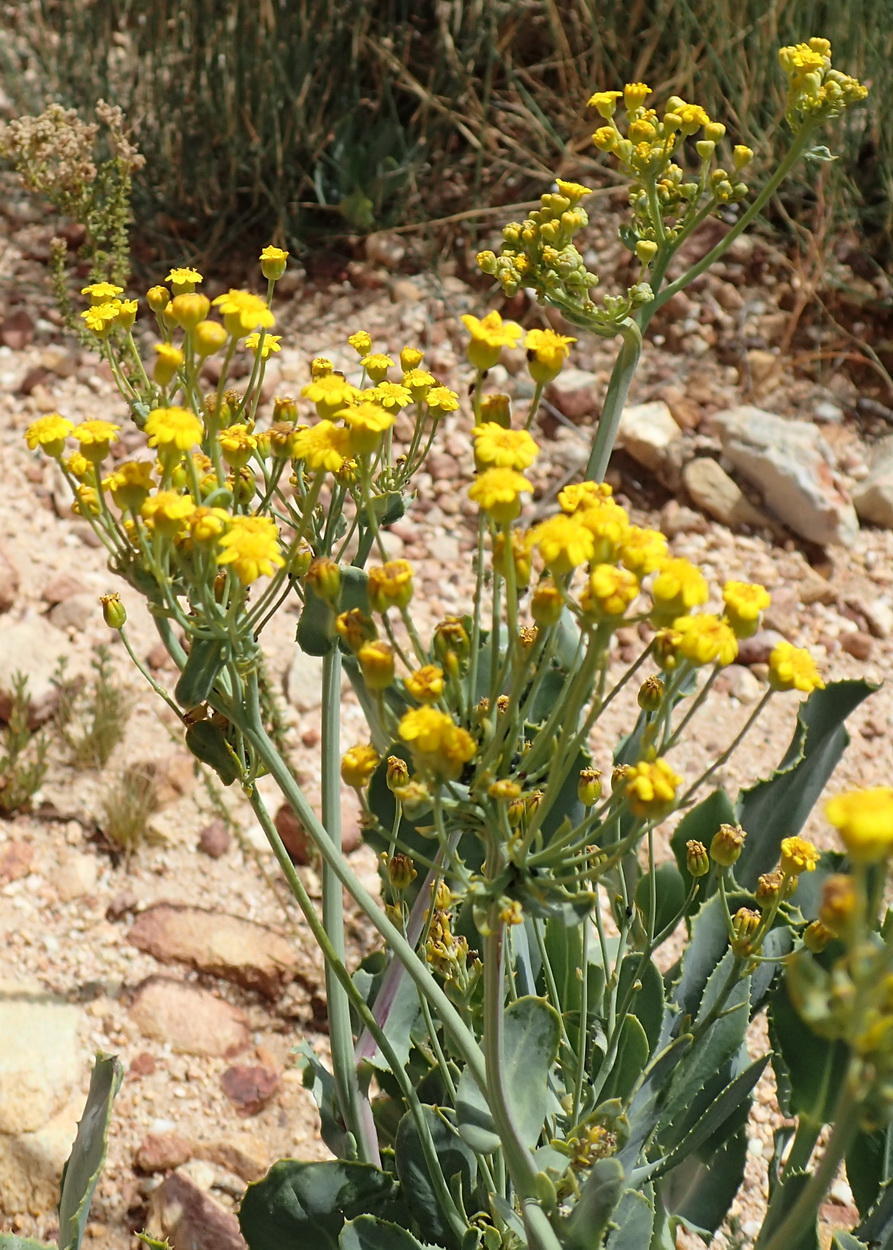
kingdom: Plantae
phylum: Tracheophyta
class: Magnoliopsida
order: Asterales
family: Asteraceae
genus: Othonna
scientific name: Othonna parviflora
